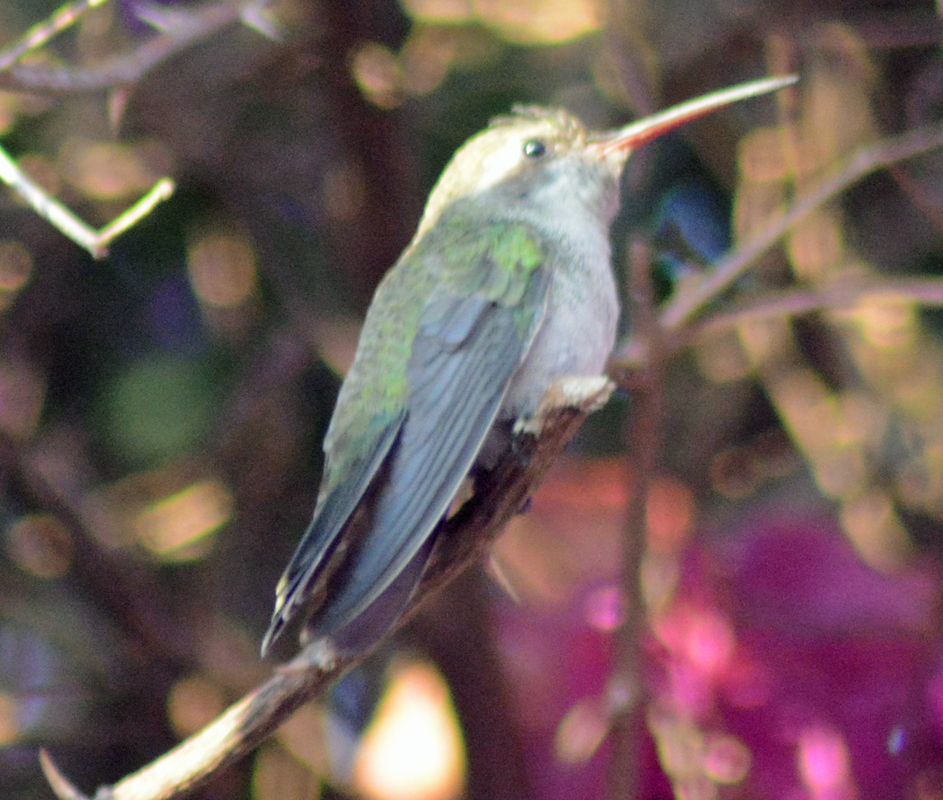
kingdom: Animalia
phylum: Chordata
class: Aves
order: Apodiformes
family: Trochilidae
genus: Cynanthus
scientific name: Cynanthus latirostris
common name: Broad-billed hummingbird
